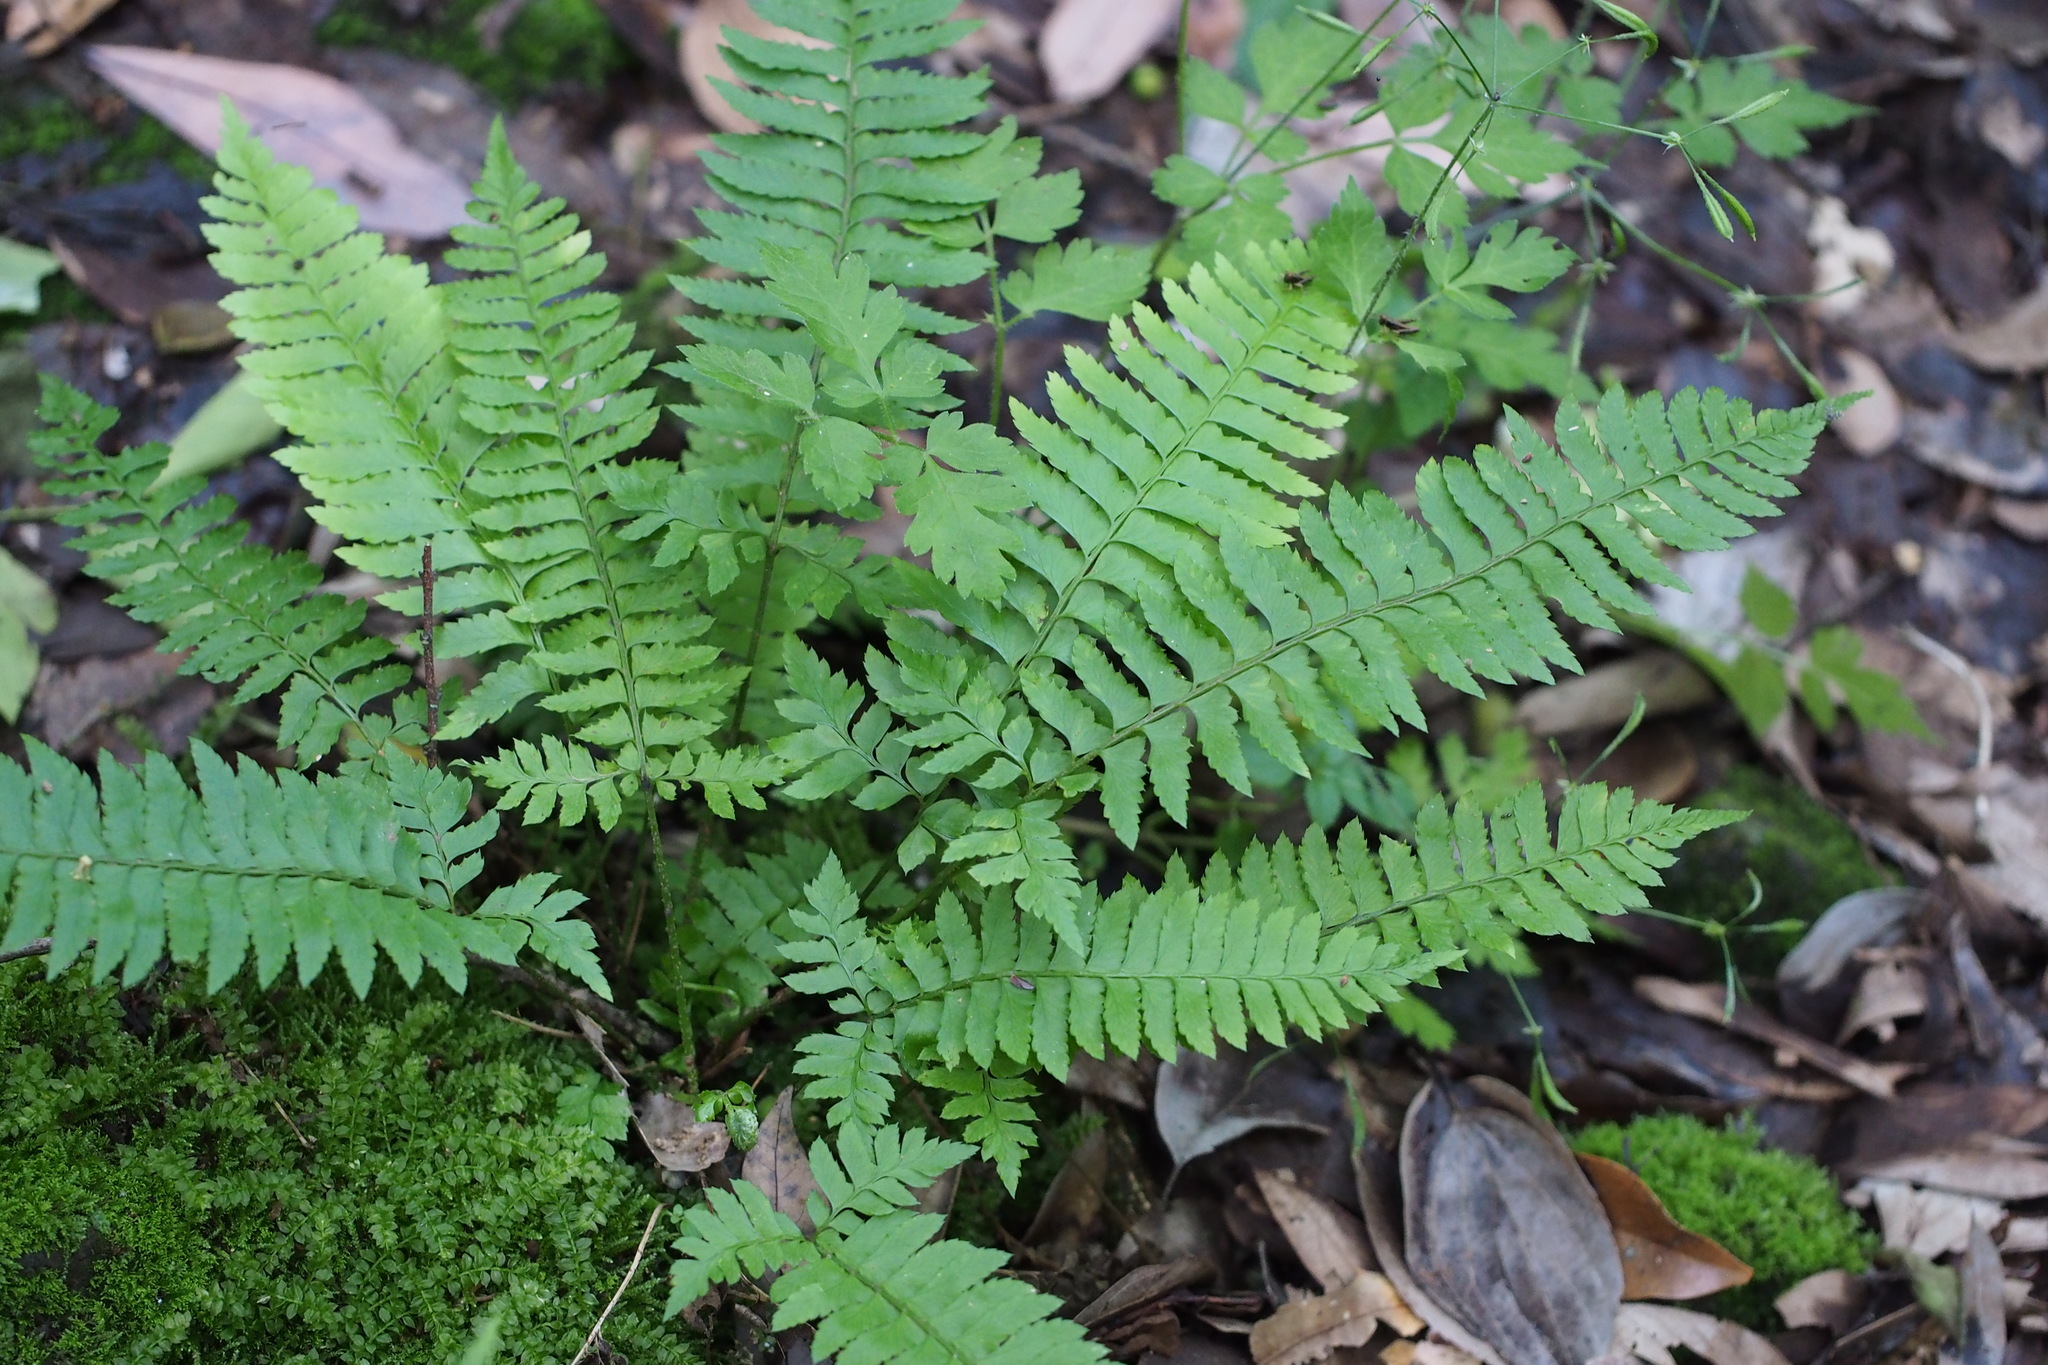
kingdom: Plantae
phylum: Tracheophyta
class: Polypodiopsida
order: Polypodiales
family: Dryopteridaceae
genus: Polystichum
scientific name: Polystichum tripteron
